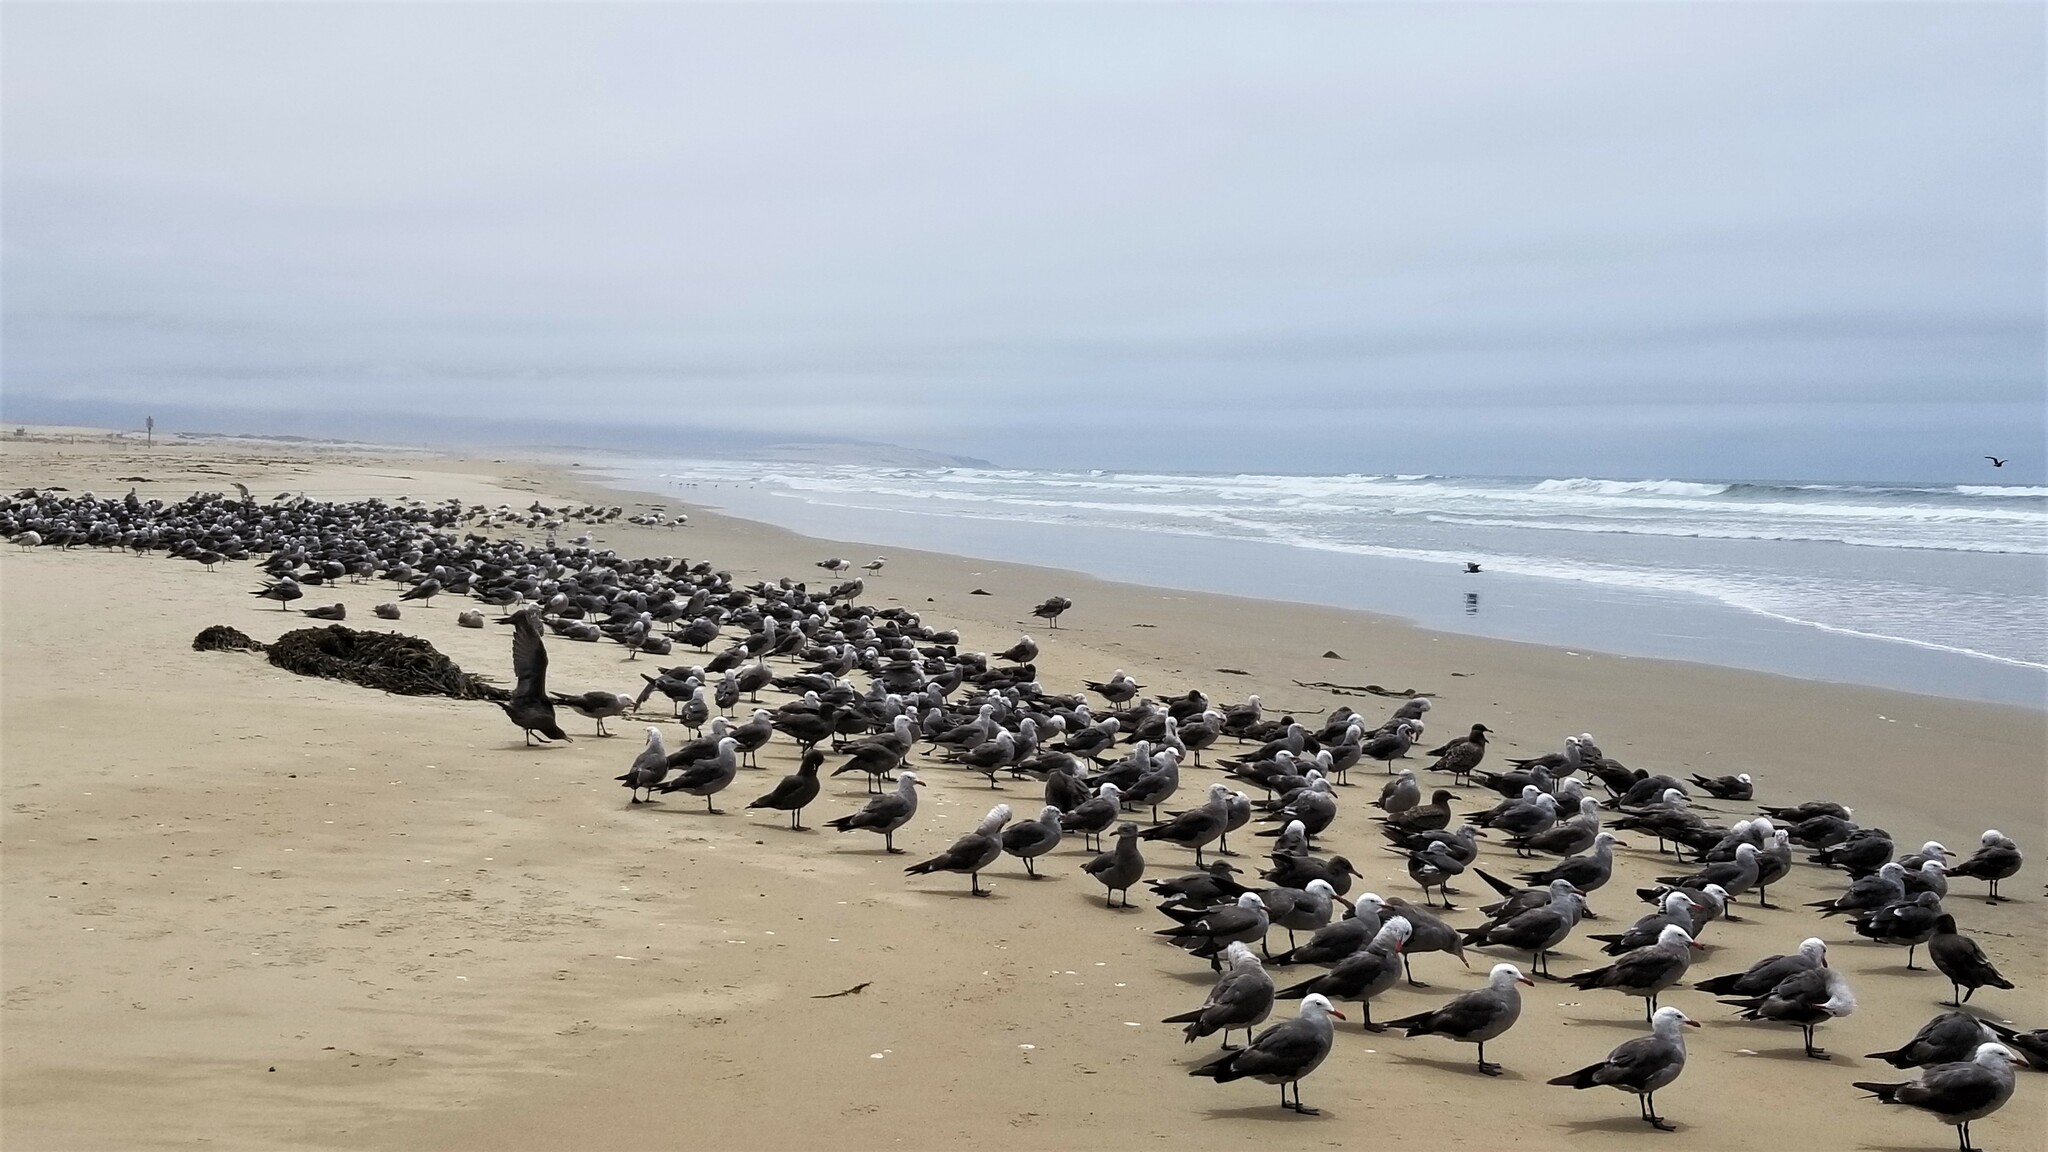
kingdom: Animalia
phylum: Chordata
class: Aves
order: Charadriiformes
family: Laridae
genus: Larus
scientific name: Larus heermanni
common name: Heermann's gull
